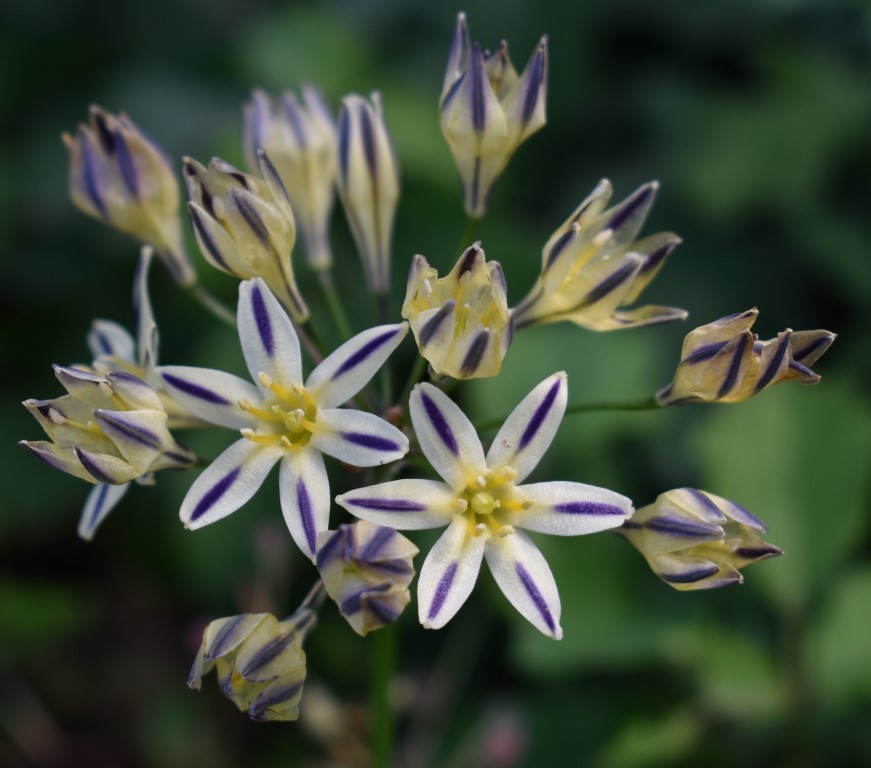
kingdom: Plantae
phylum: Tracheophyta
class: Liliopsida
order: Asparagales
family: Asparagaceae
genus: Triteleia
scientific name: Triteleia hendersonii
